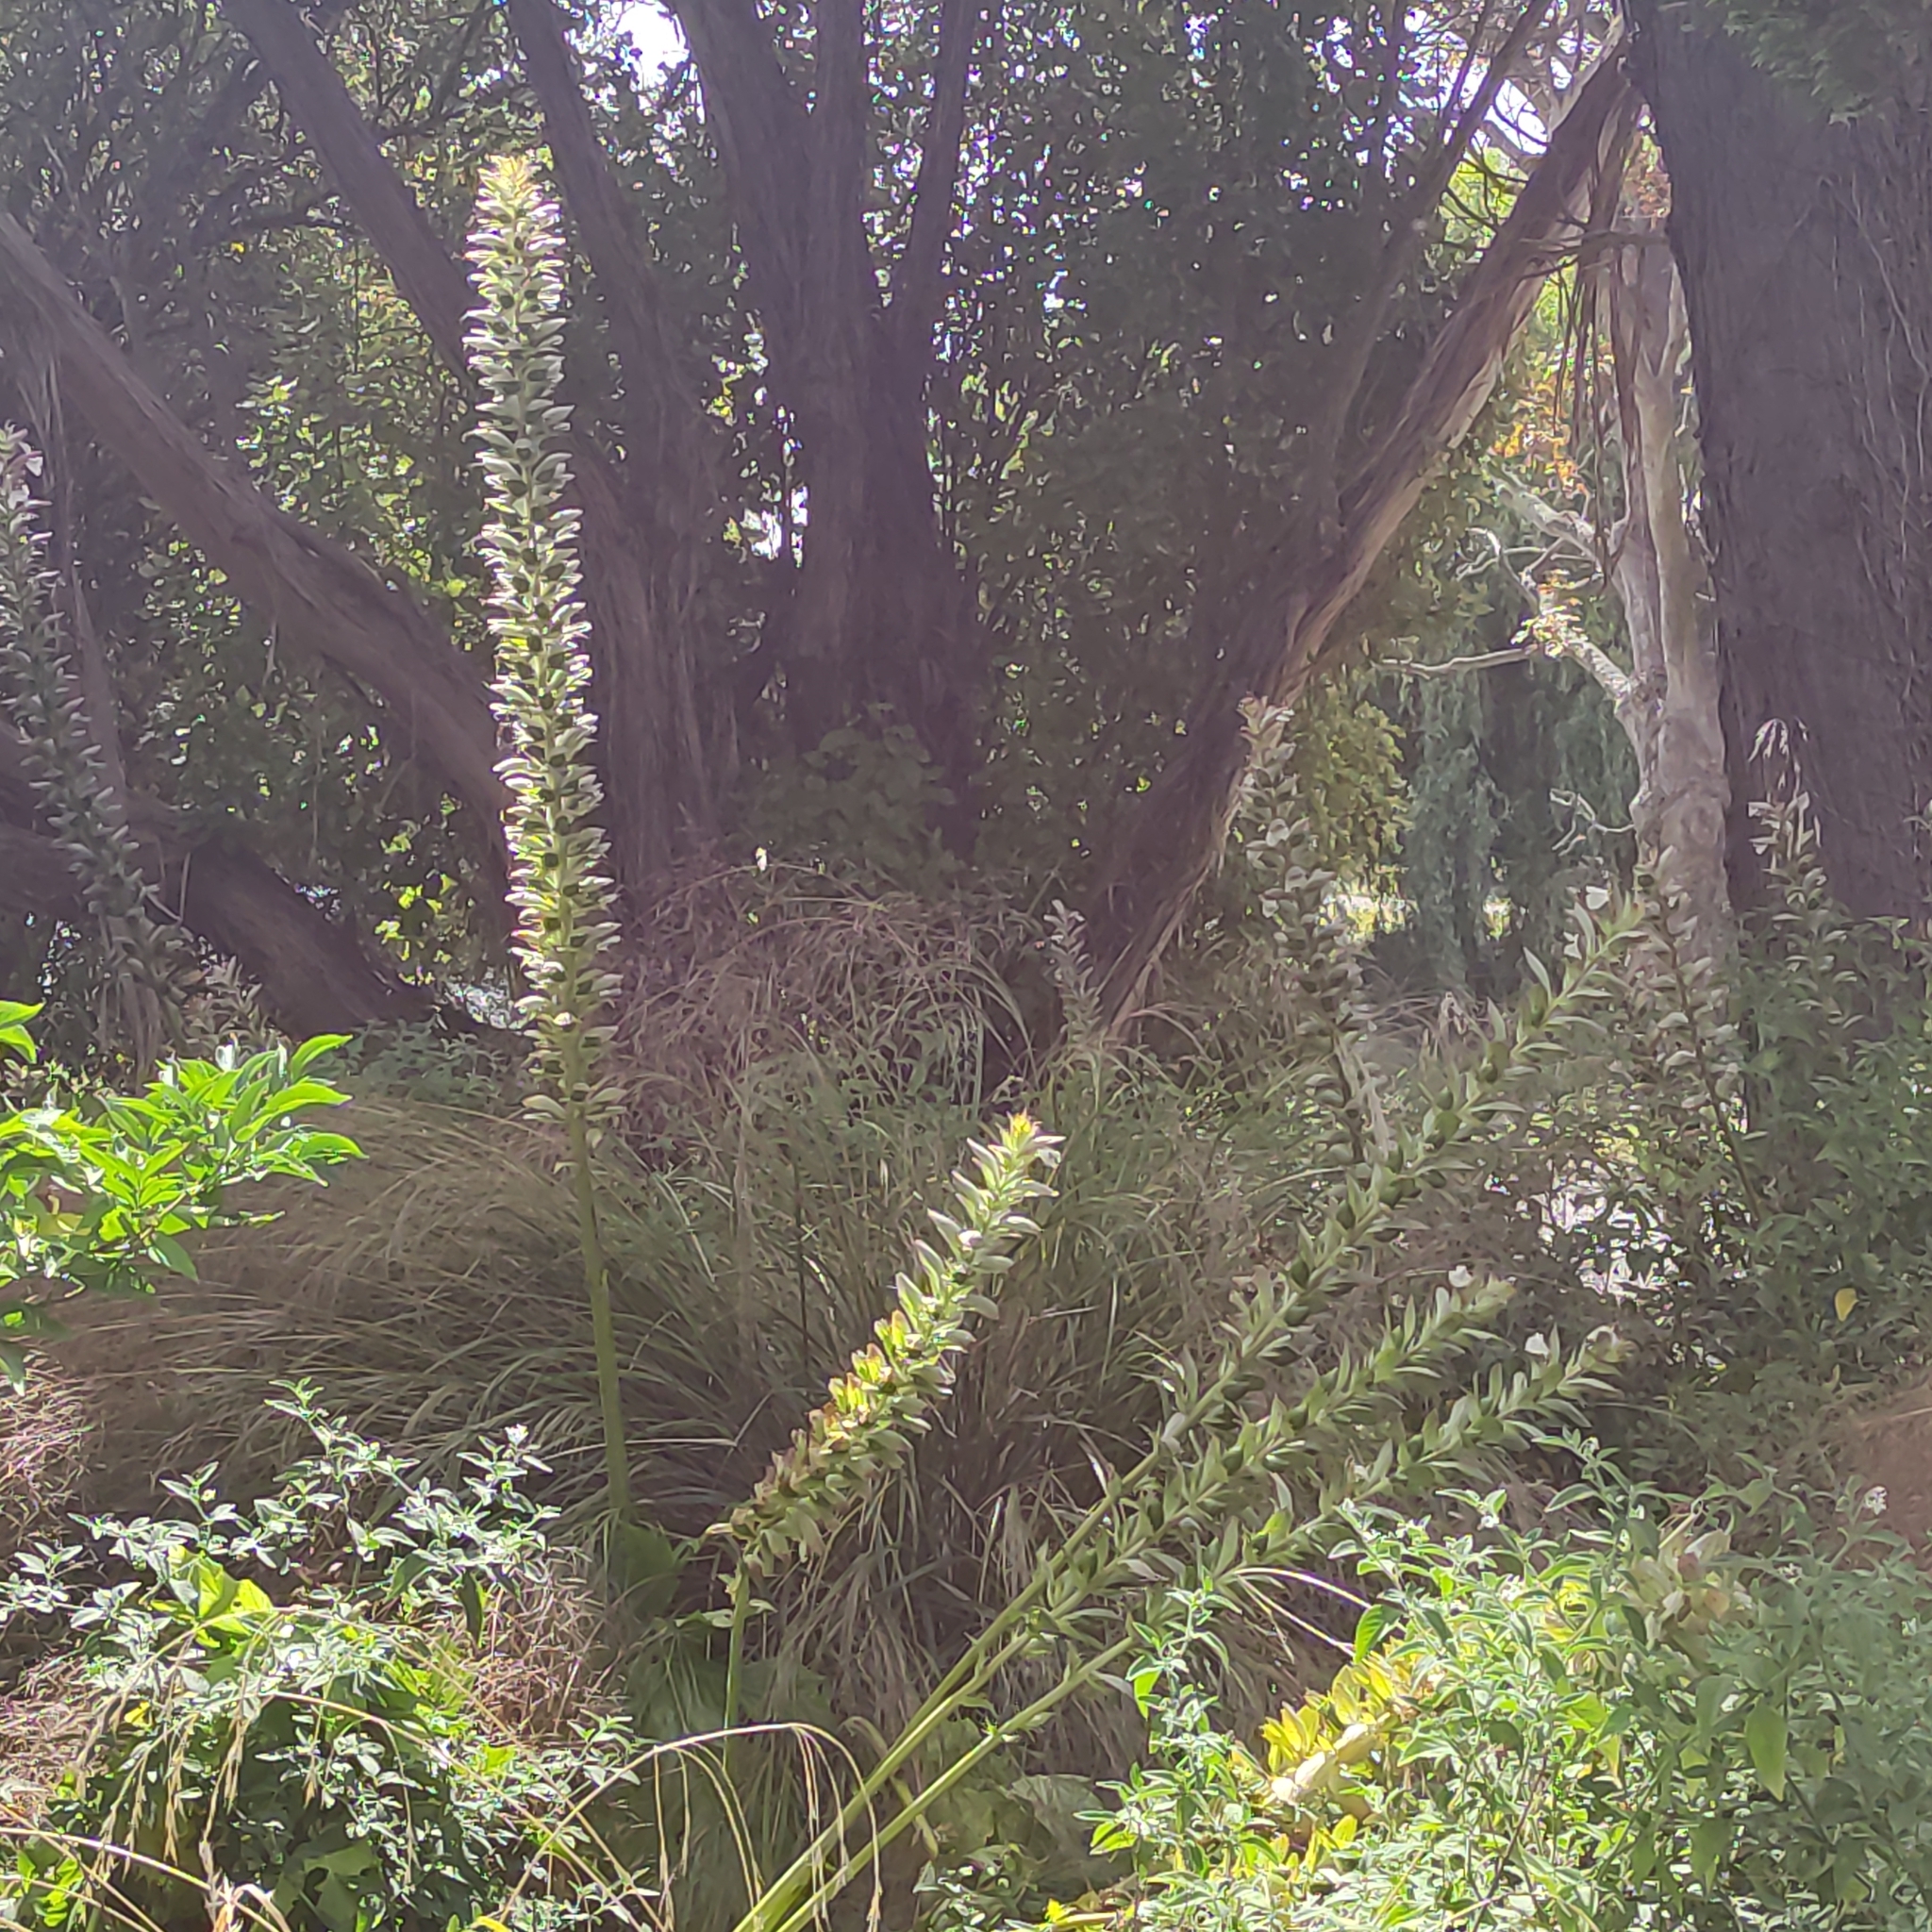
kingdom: Plantae
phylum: Tracheophyta
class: Magnoliopsida
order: Lamiales
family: Acanthaceae
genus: Acanthus
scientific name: Acanthus mollis
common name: Bear's-breech
